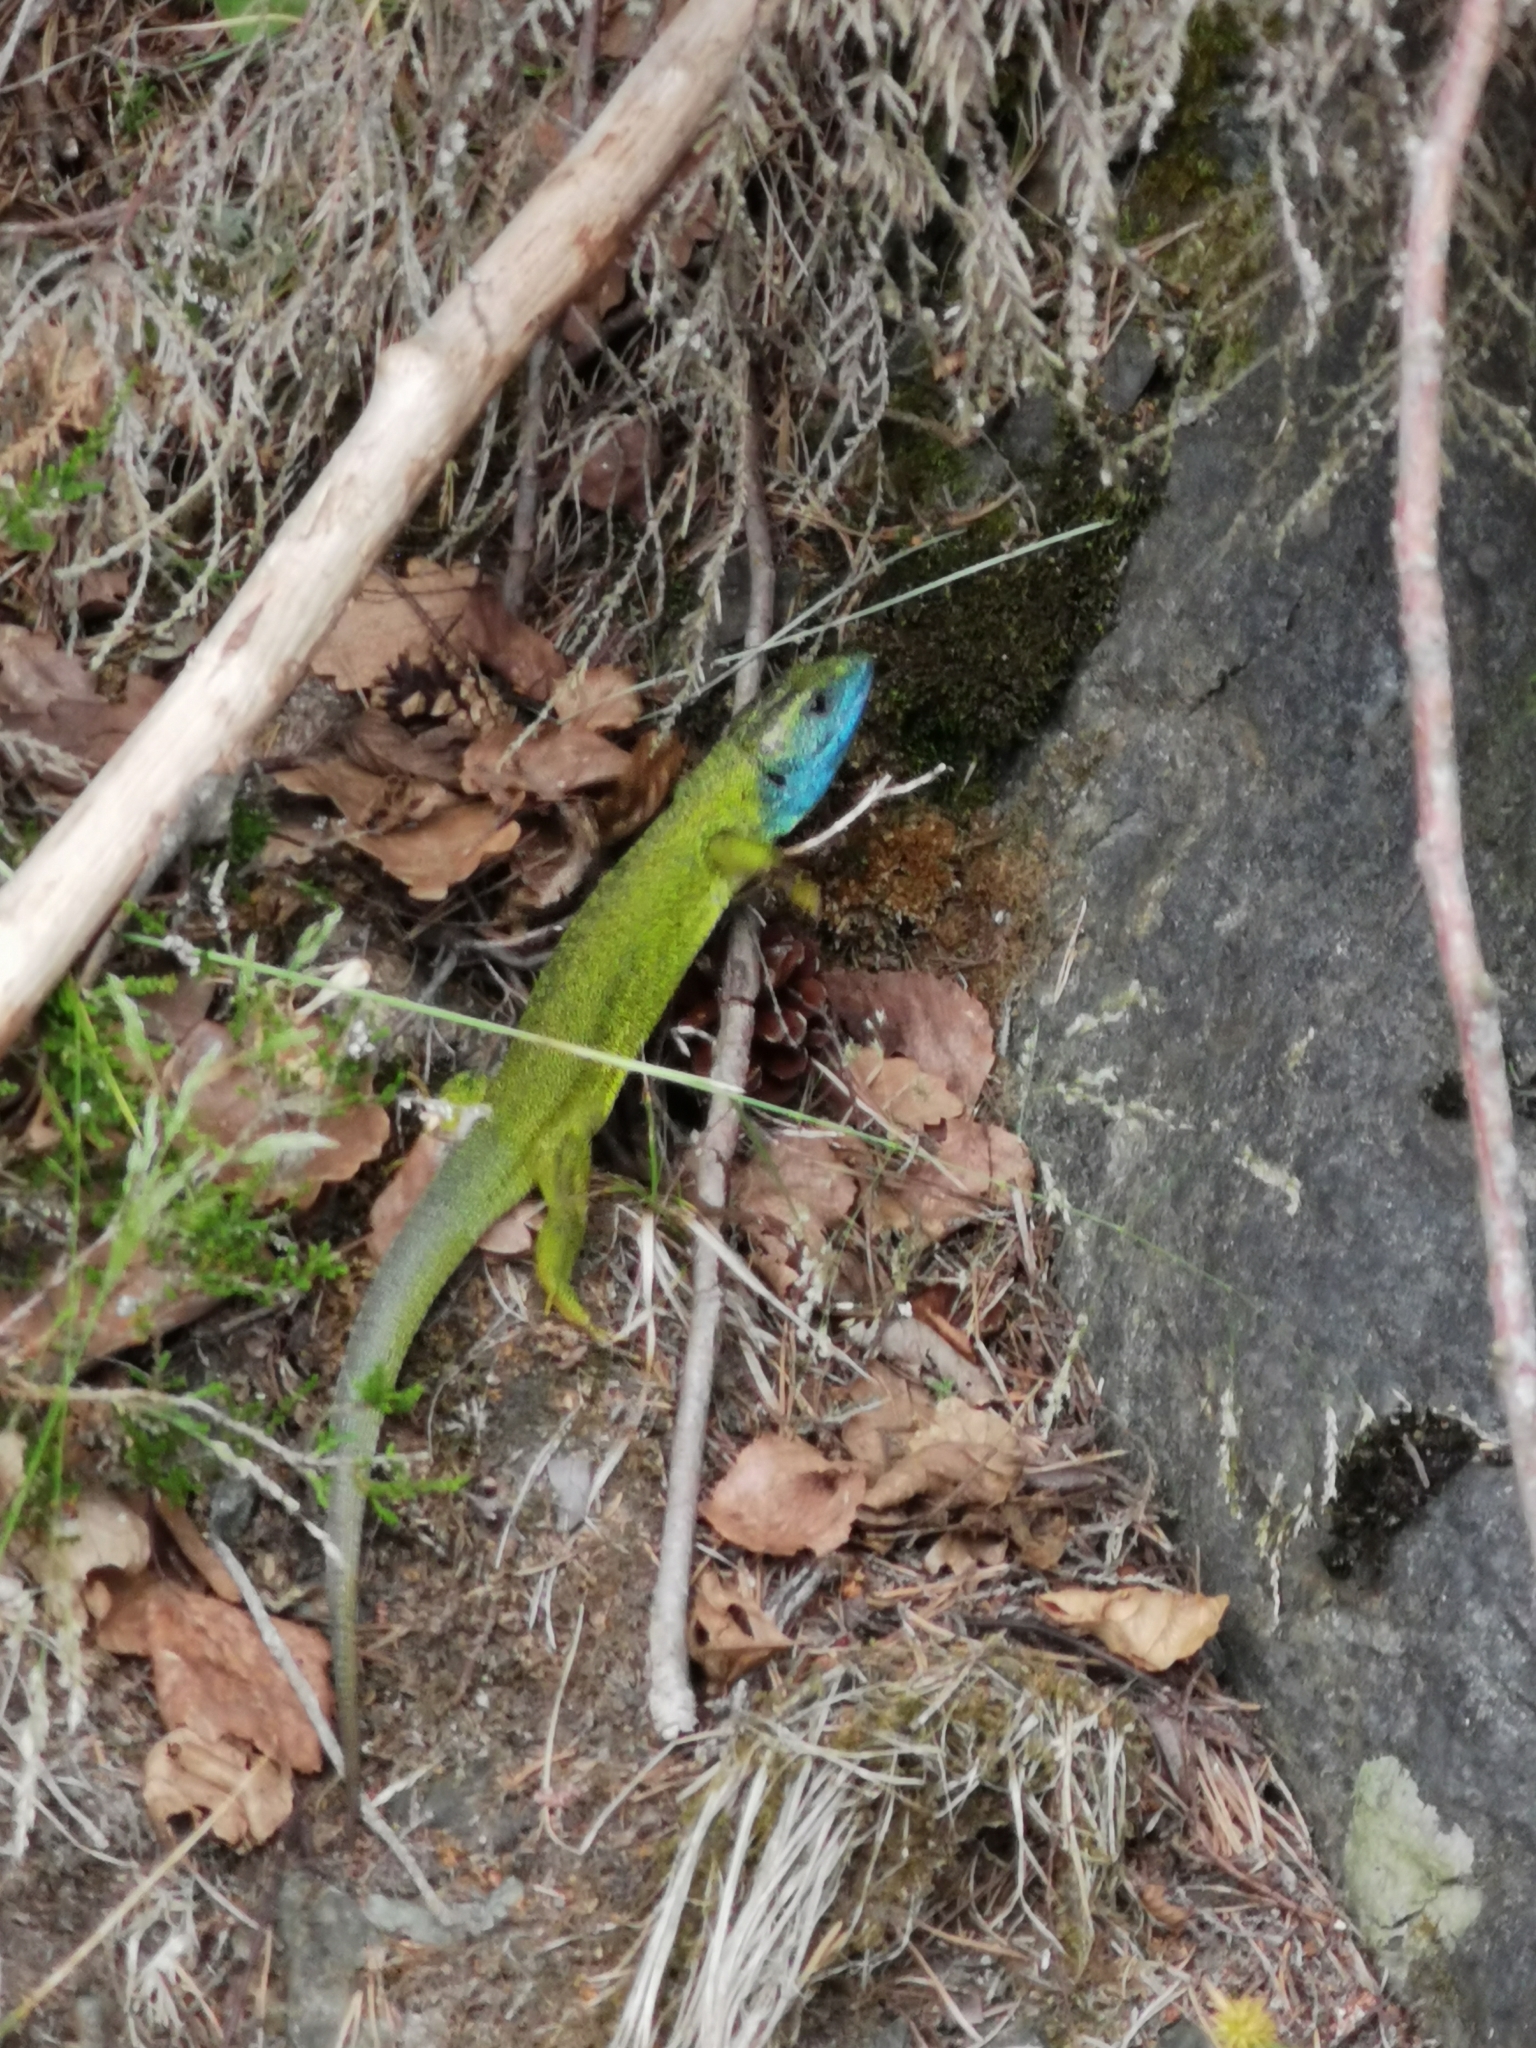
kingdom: Animalia
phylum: Chordata
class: Squamata
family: Lacertidae
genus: Lacerta
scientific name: Lacerta viridis
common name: European green lizard
